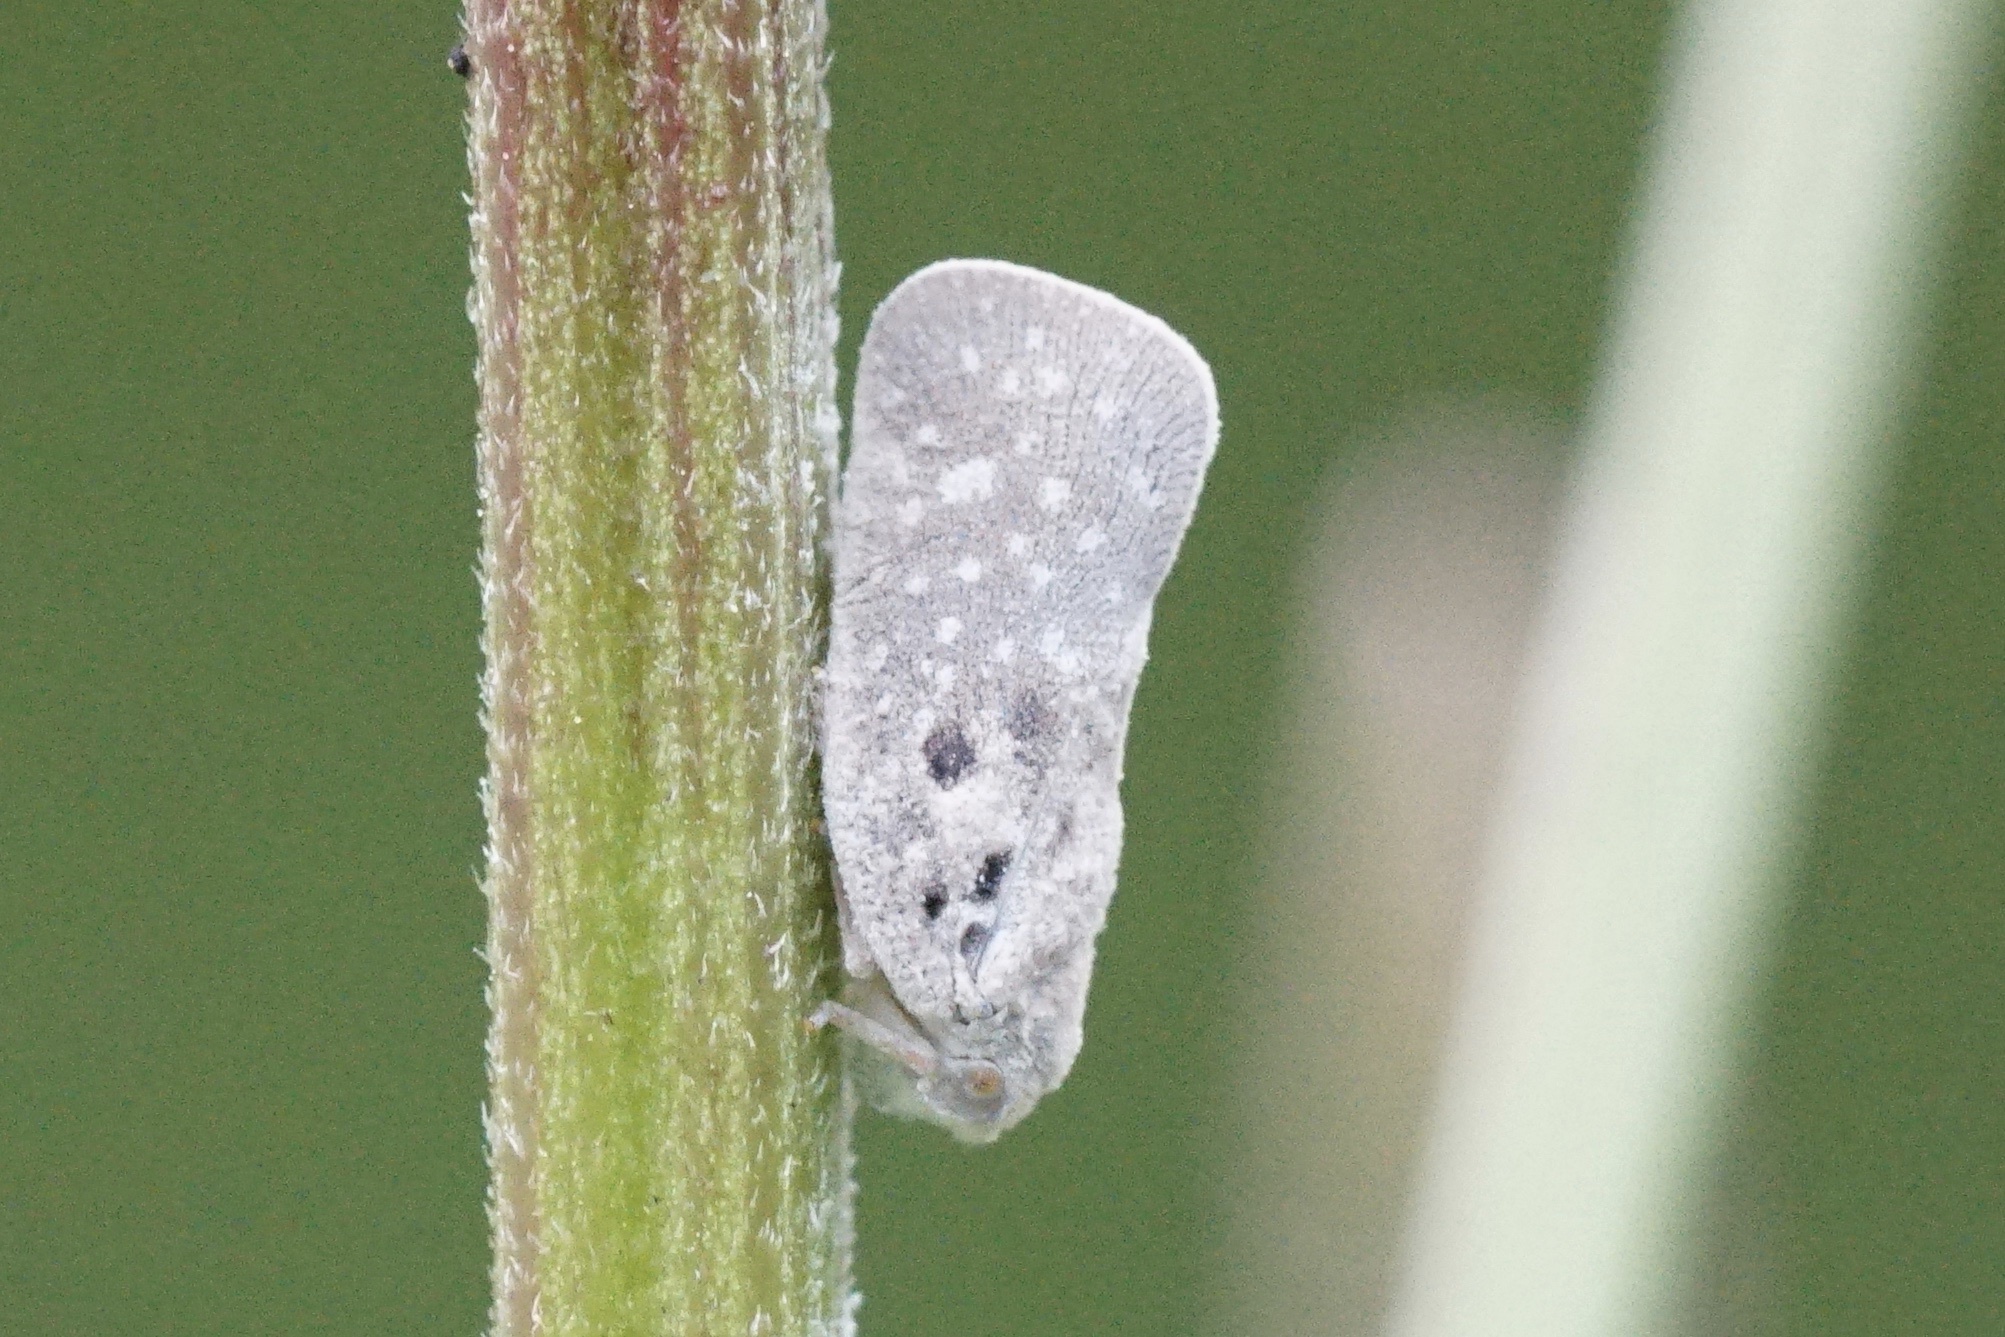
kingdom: Animalia
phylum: Arthropoda
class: Insecta
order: Hemiptera
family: Flatidae
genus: Metcalfa
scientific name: Metcalfa pruinosa
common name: Citrus flatid planthopper
